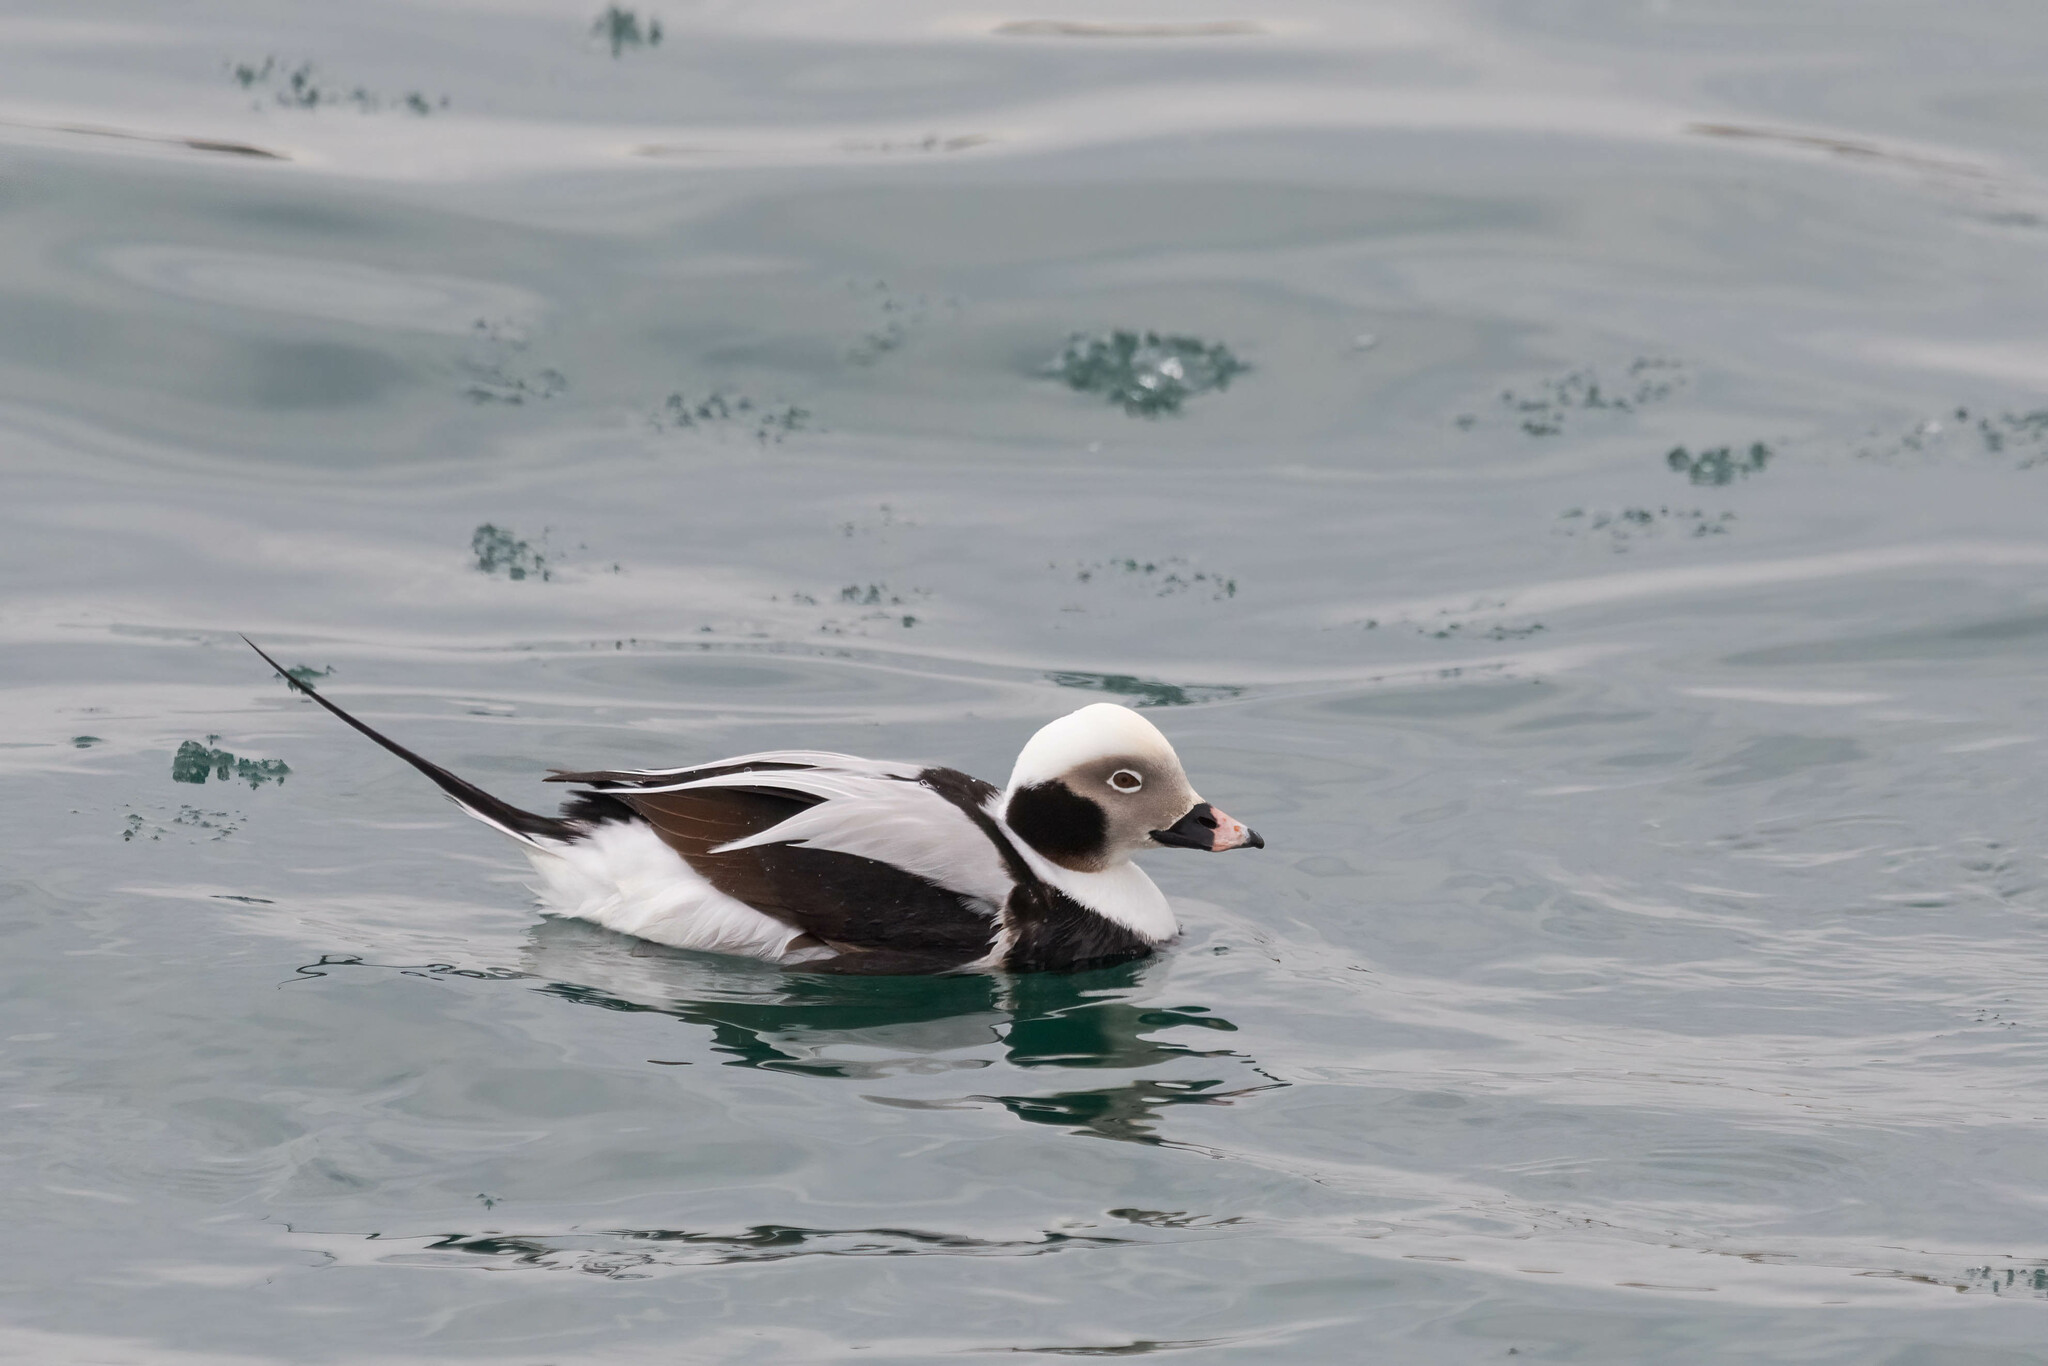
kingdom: Animalia
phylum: Chordata
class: Aves
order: Anseriformes
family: Anatidae
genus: Clangula
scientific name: Clangula hyemalis
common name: Long-tailed duck
